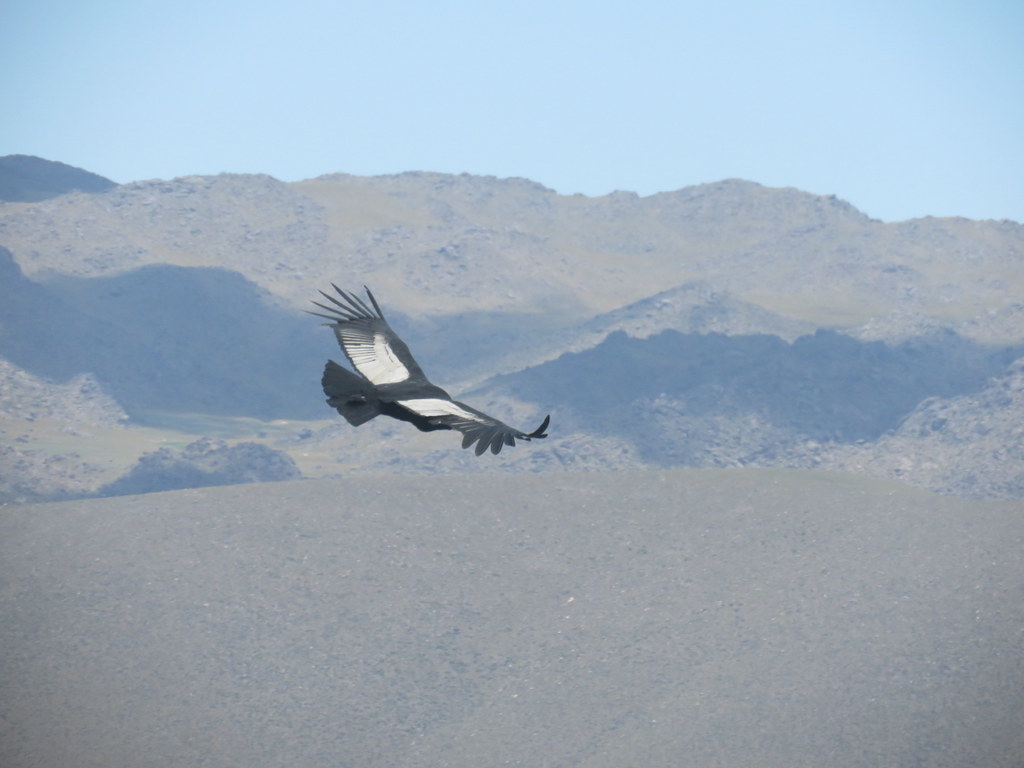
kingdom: Animalia
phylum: Chordata
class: Aves
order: Accipitriformes
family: Cathartidae
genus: Vultur
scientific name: Vultur gryphus
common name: Andean condor
